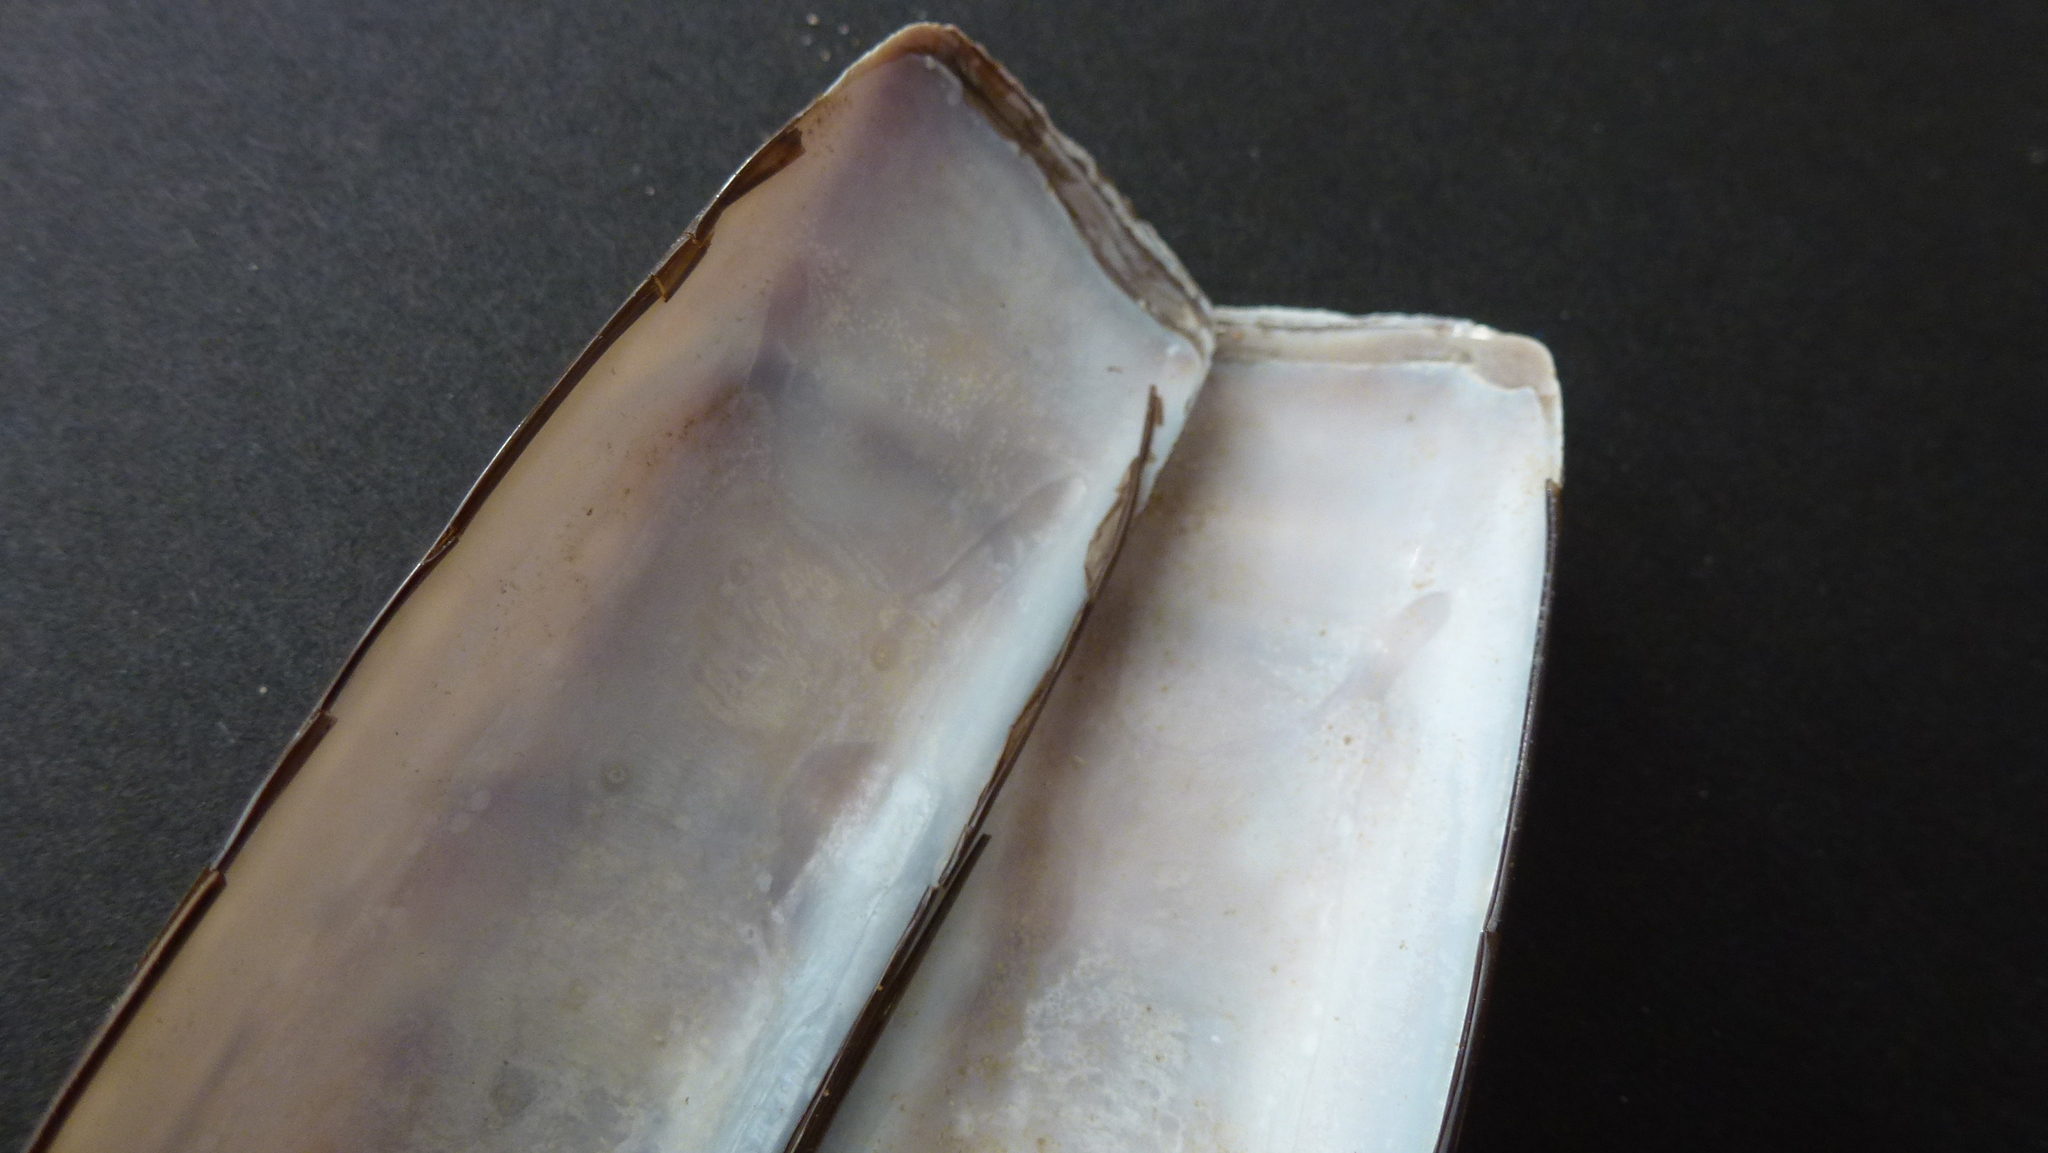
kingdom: Animalia
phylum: Mollusca
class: Bivalvia
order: Adapedonta
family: Pharidae
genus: Ensis
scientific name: Ensis leei
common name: American jack knife clam
